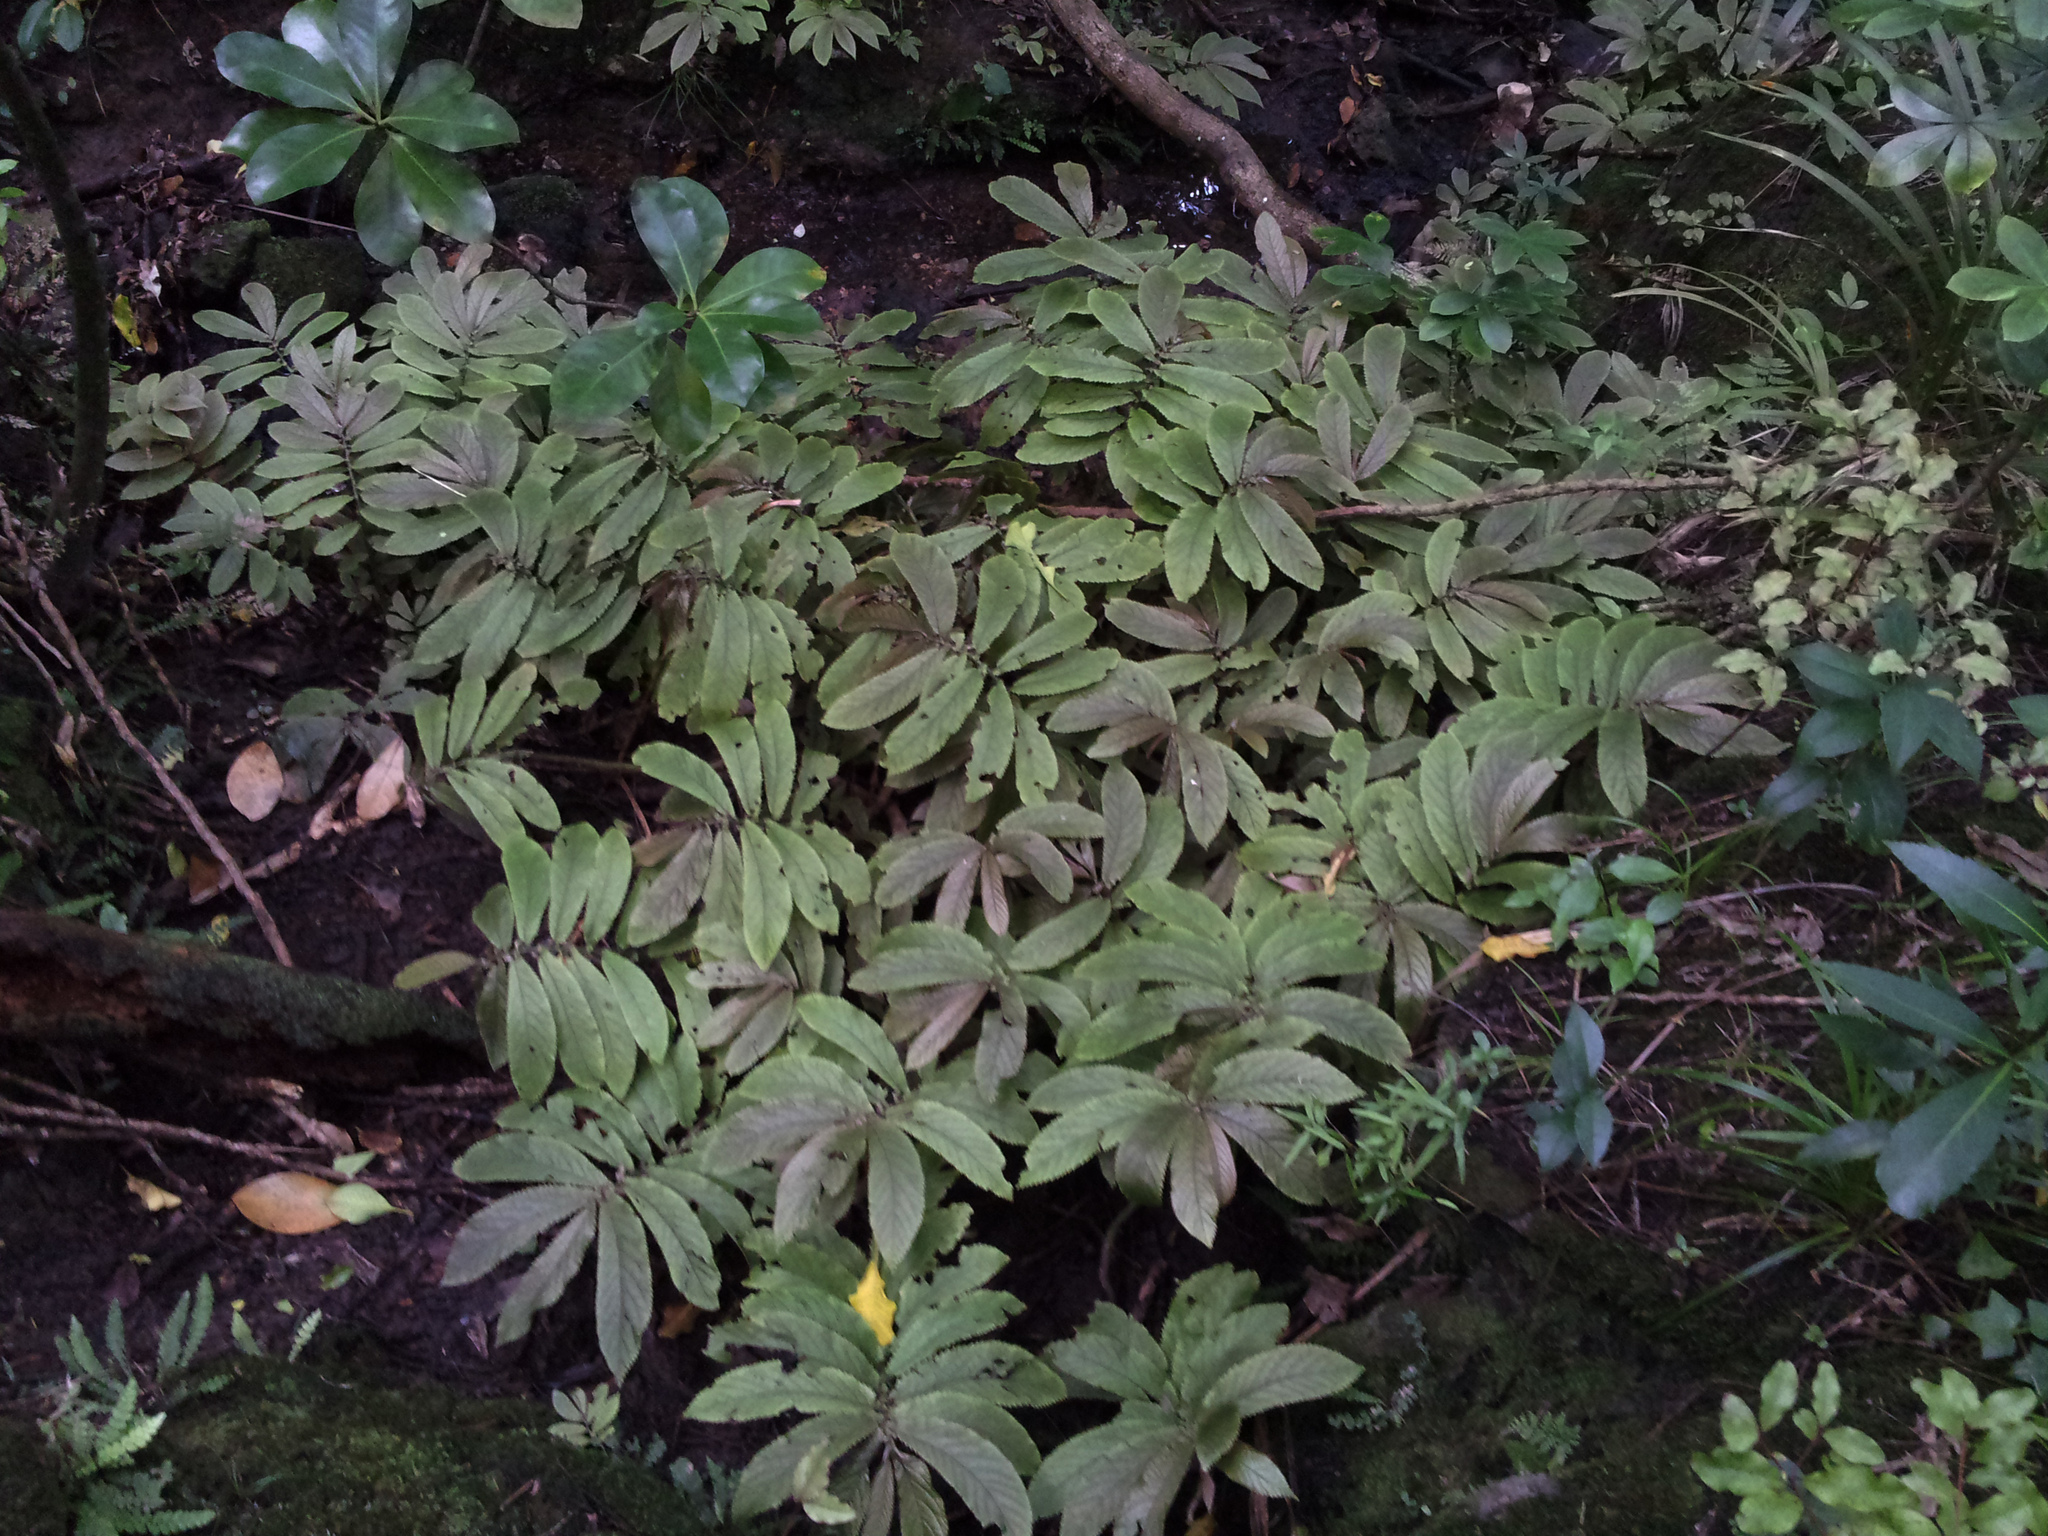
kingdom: Plantae
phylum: Tracheophyta
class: Magnoliopsida
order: Rosales
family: Urticaceae
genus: Elatostema
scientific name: Elatostema rugosum
